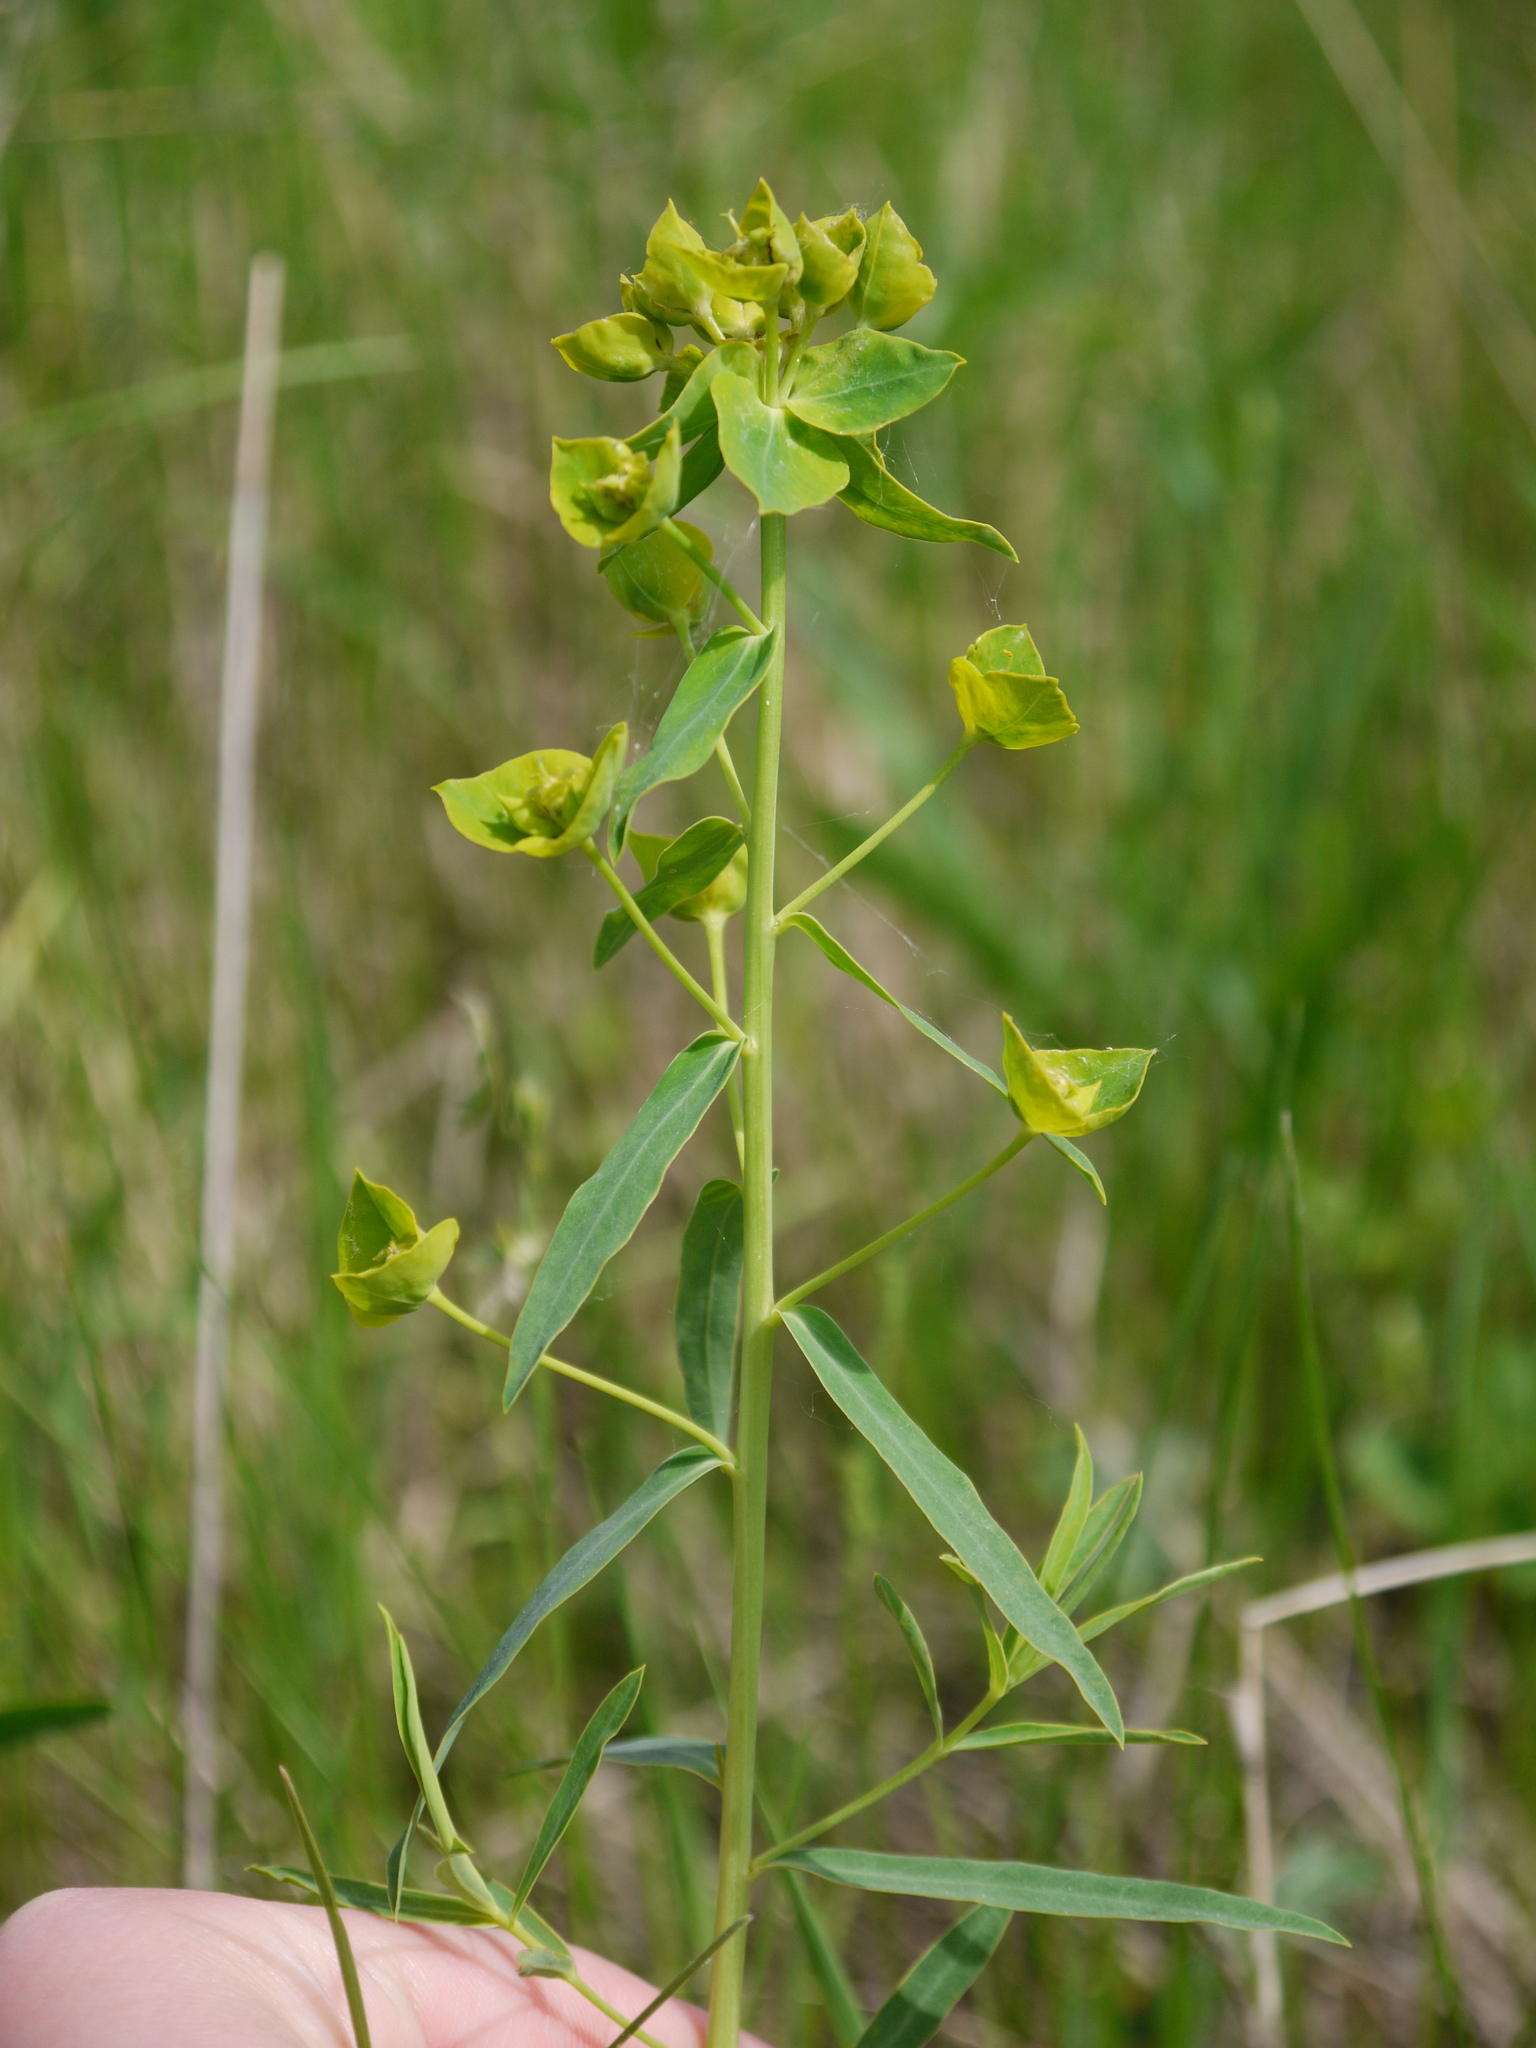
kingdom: Plantae
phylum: Tracheophyta
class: Magnoliopsida
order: Malpighiales
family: Euphorbiaceae
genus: Euphorbia
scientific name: Euphorbia virgata
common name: Leafy spurge
